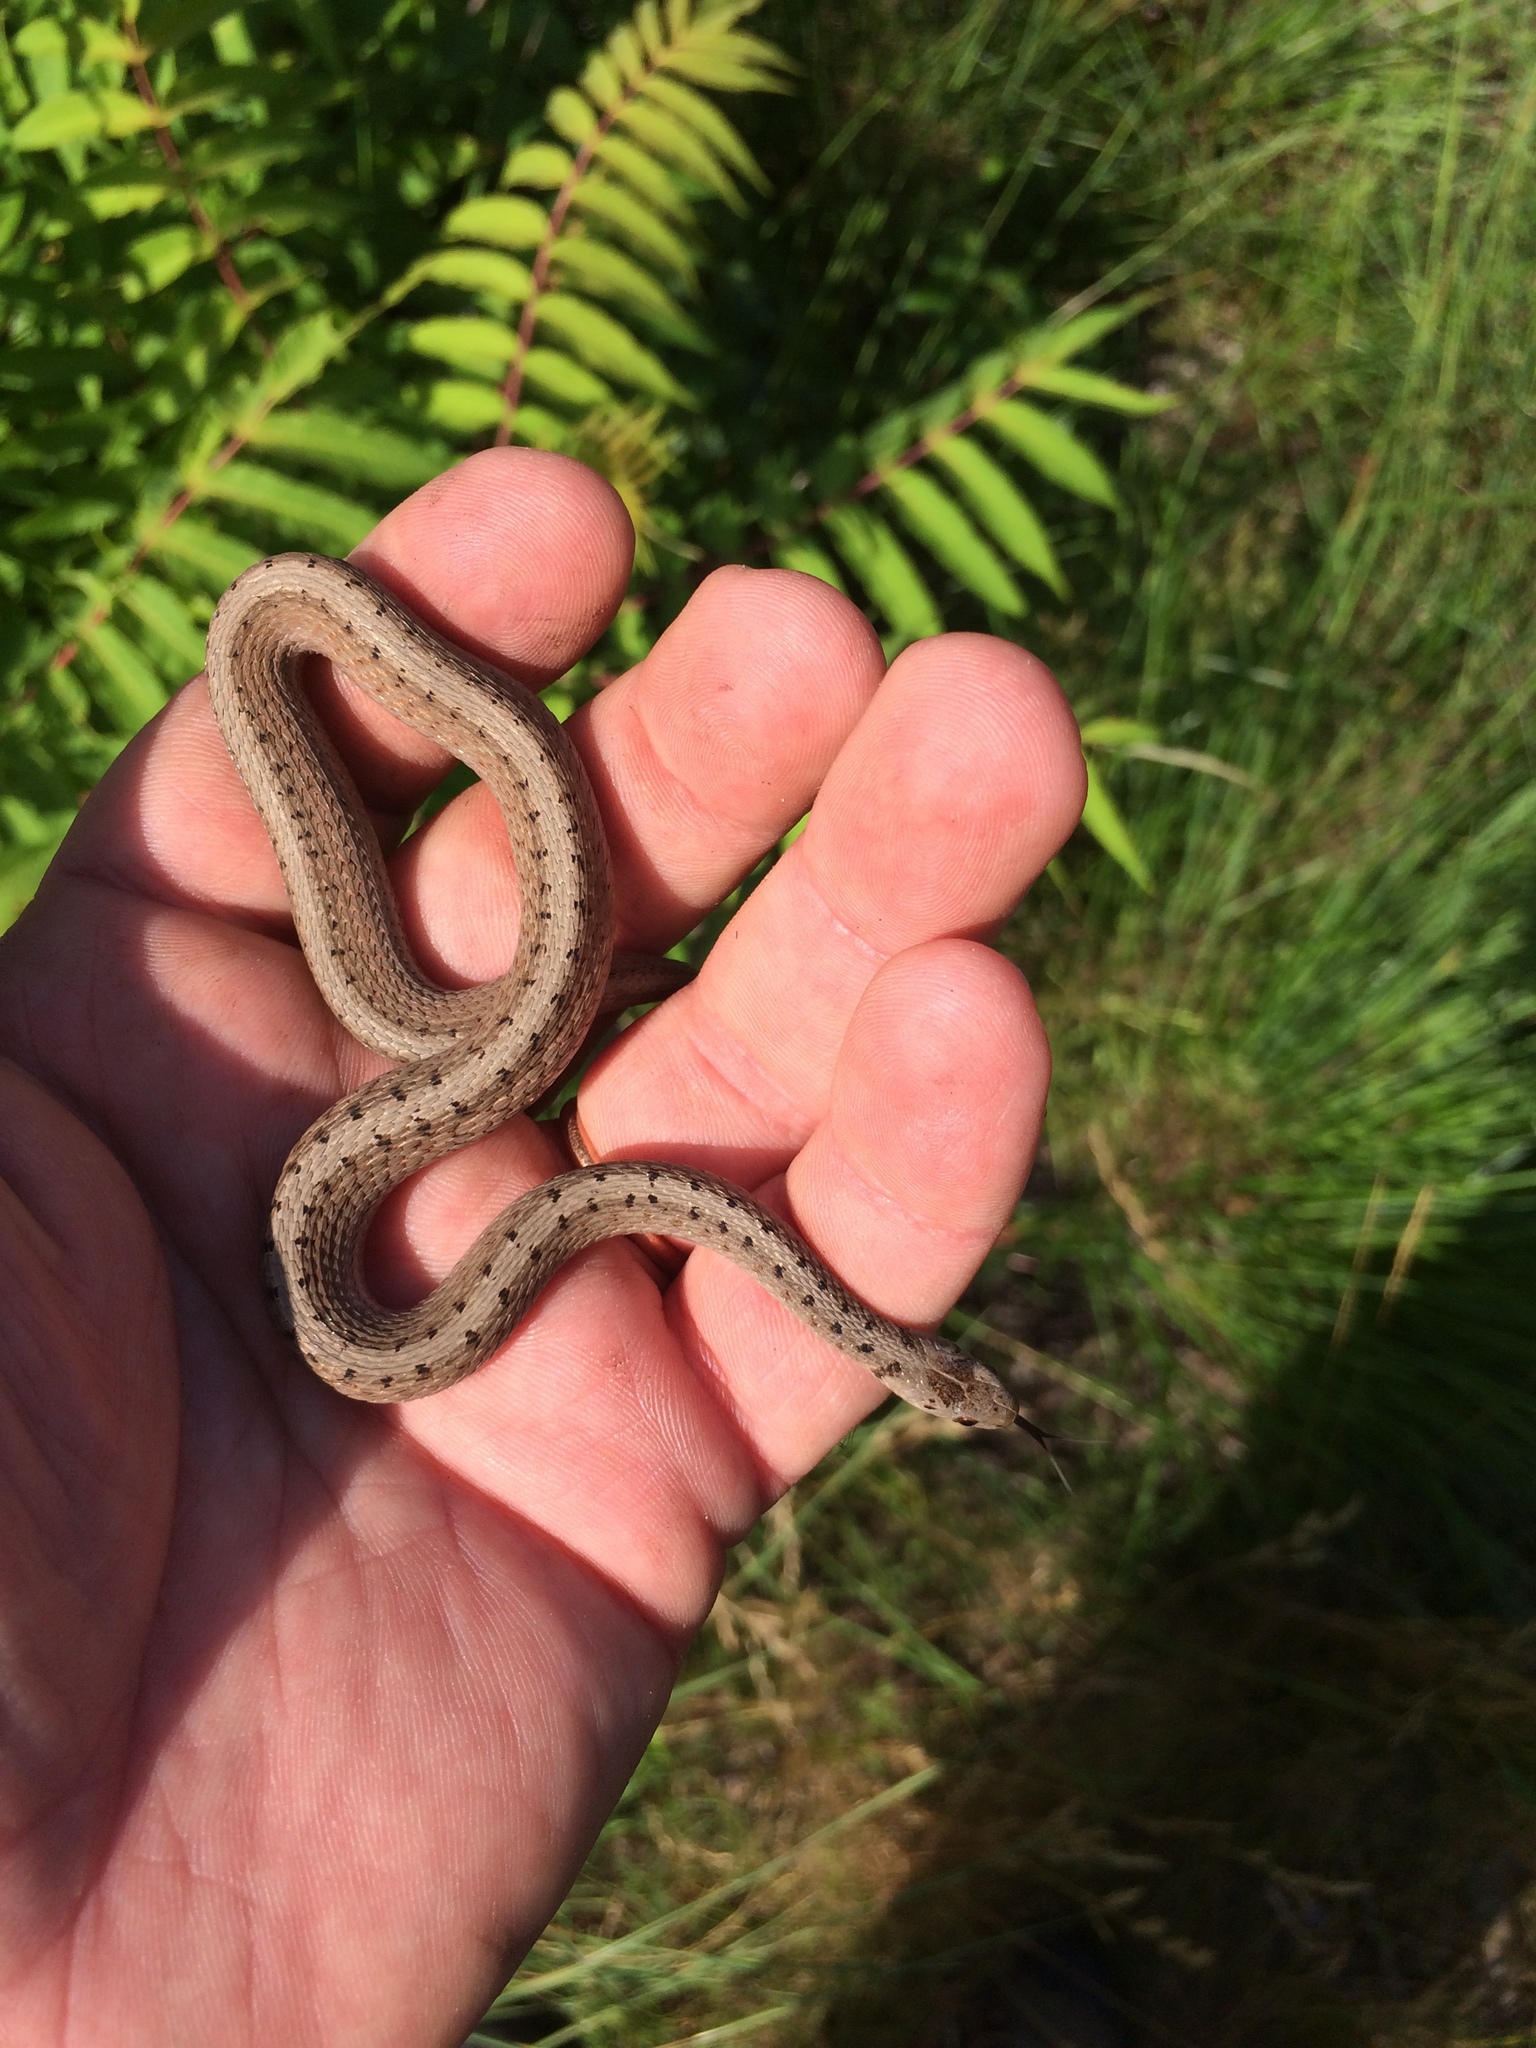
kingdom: Animalia
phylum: Chordata
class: Squamata
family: Colubridae
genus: Storeria
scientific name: Storeria dekayi
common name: (dekay’s) brown snake
